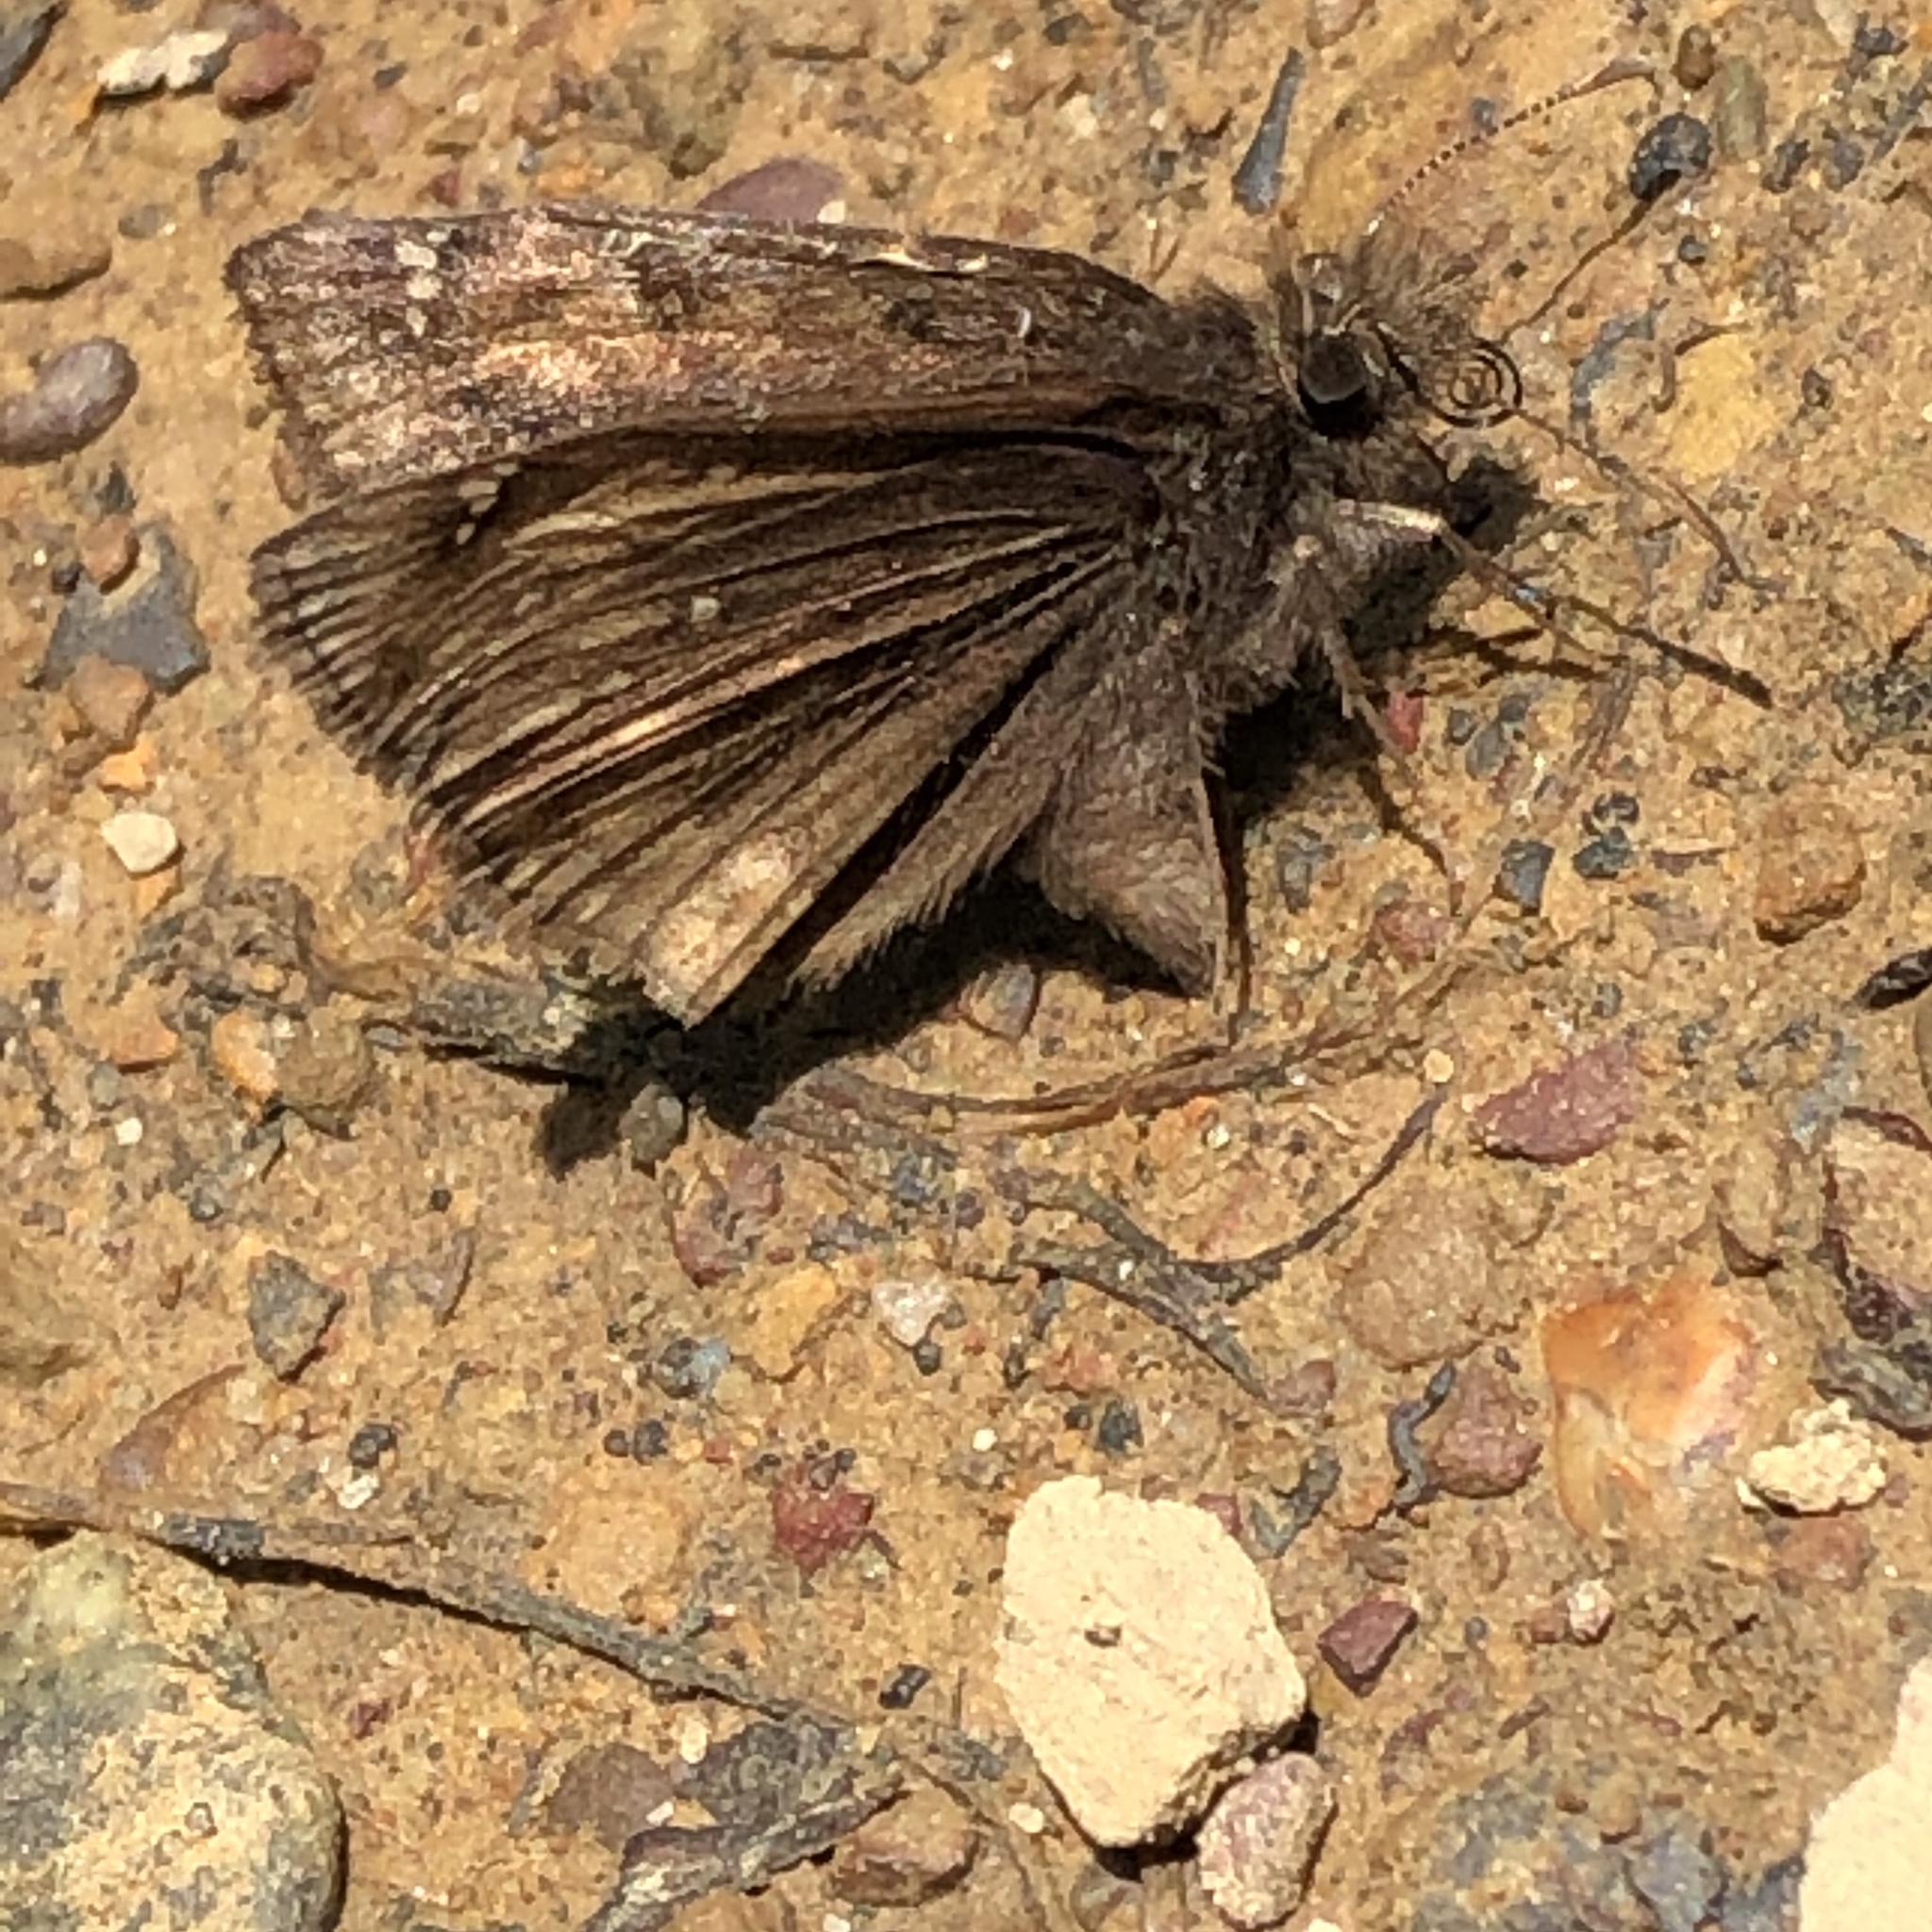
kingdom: Animalia
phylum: Arthropoda
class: Insecta
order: Lepidoptera
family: Hesperiidae
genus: Erynnis
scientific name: Erynnis juvenalis
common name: Juvenal's duskywing
